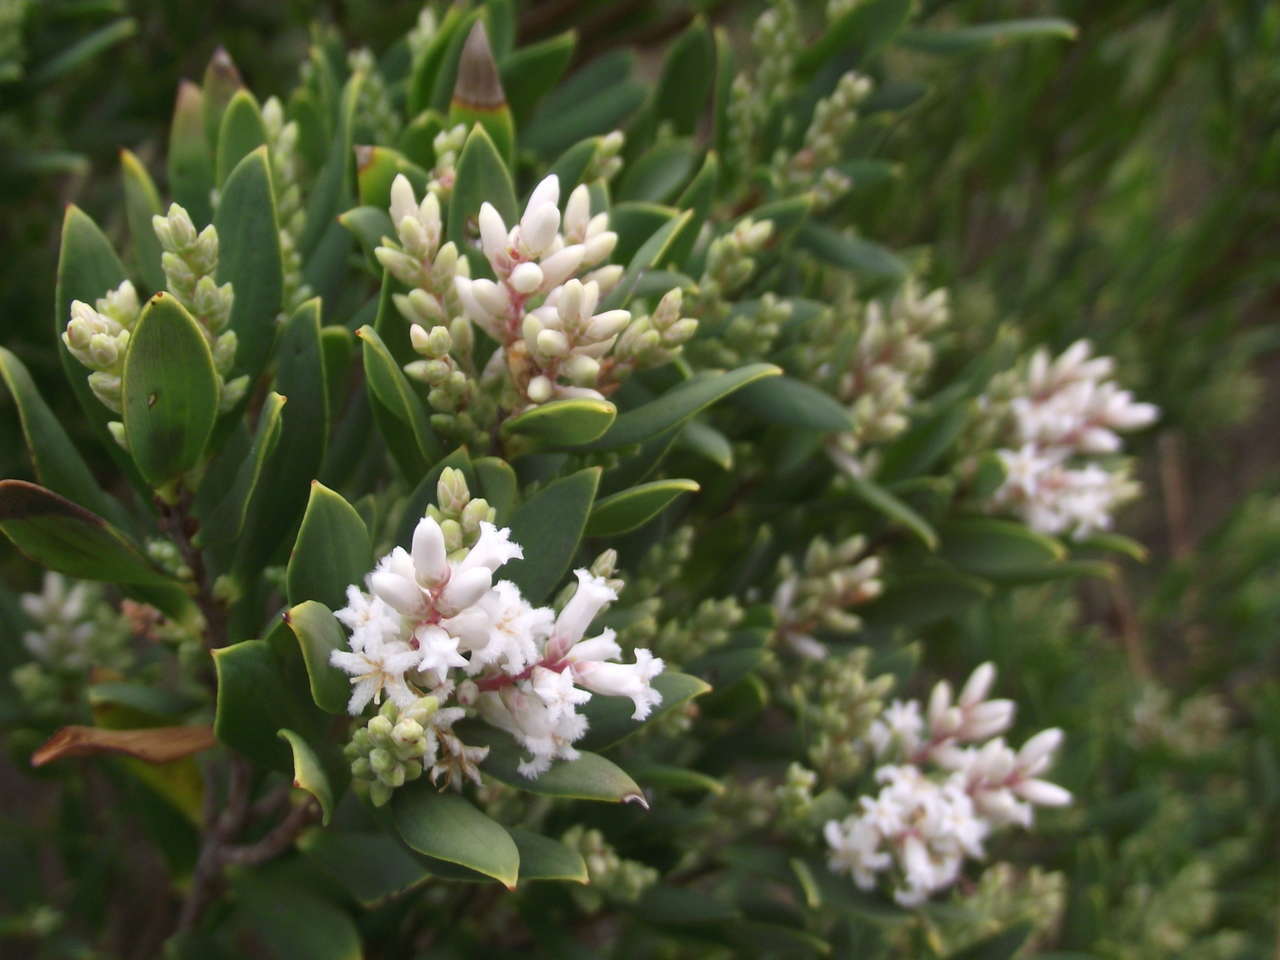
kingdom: Plantae
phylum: Tracheophyta
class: Magnoliopsida
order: Ericales
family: Ericaceae
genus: Leptecophylla
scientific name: Leptecophylla parvifolia
